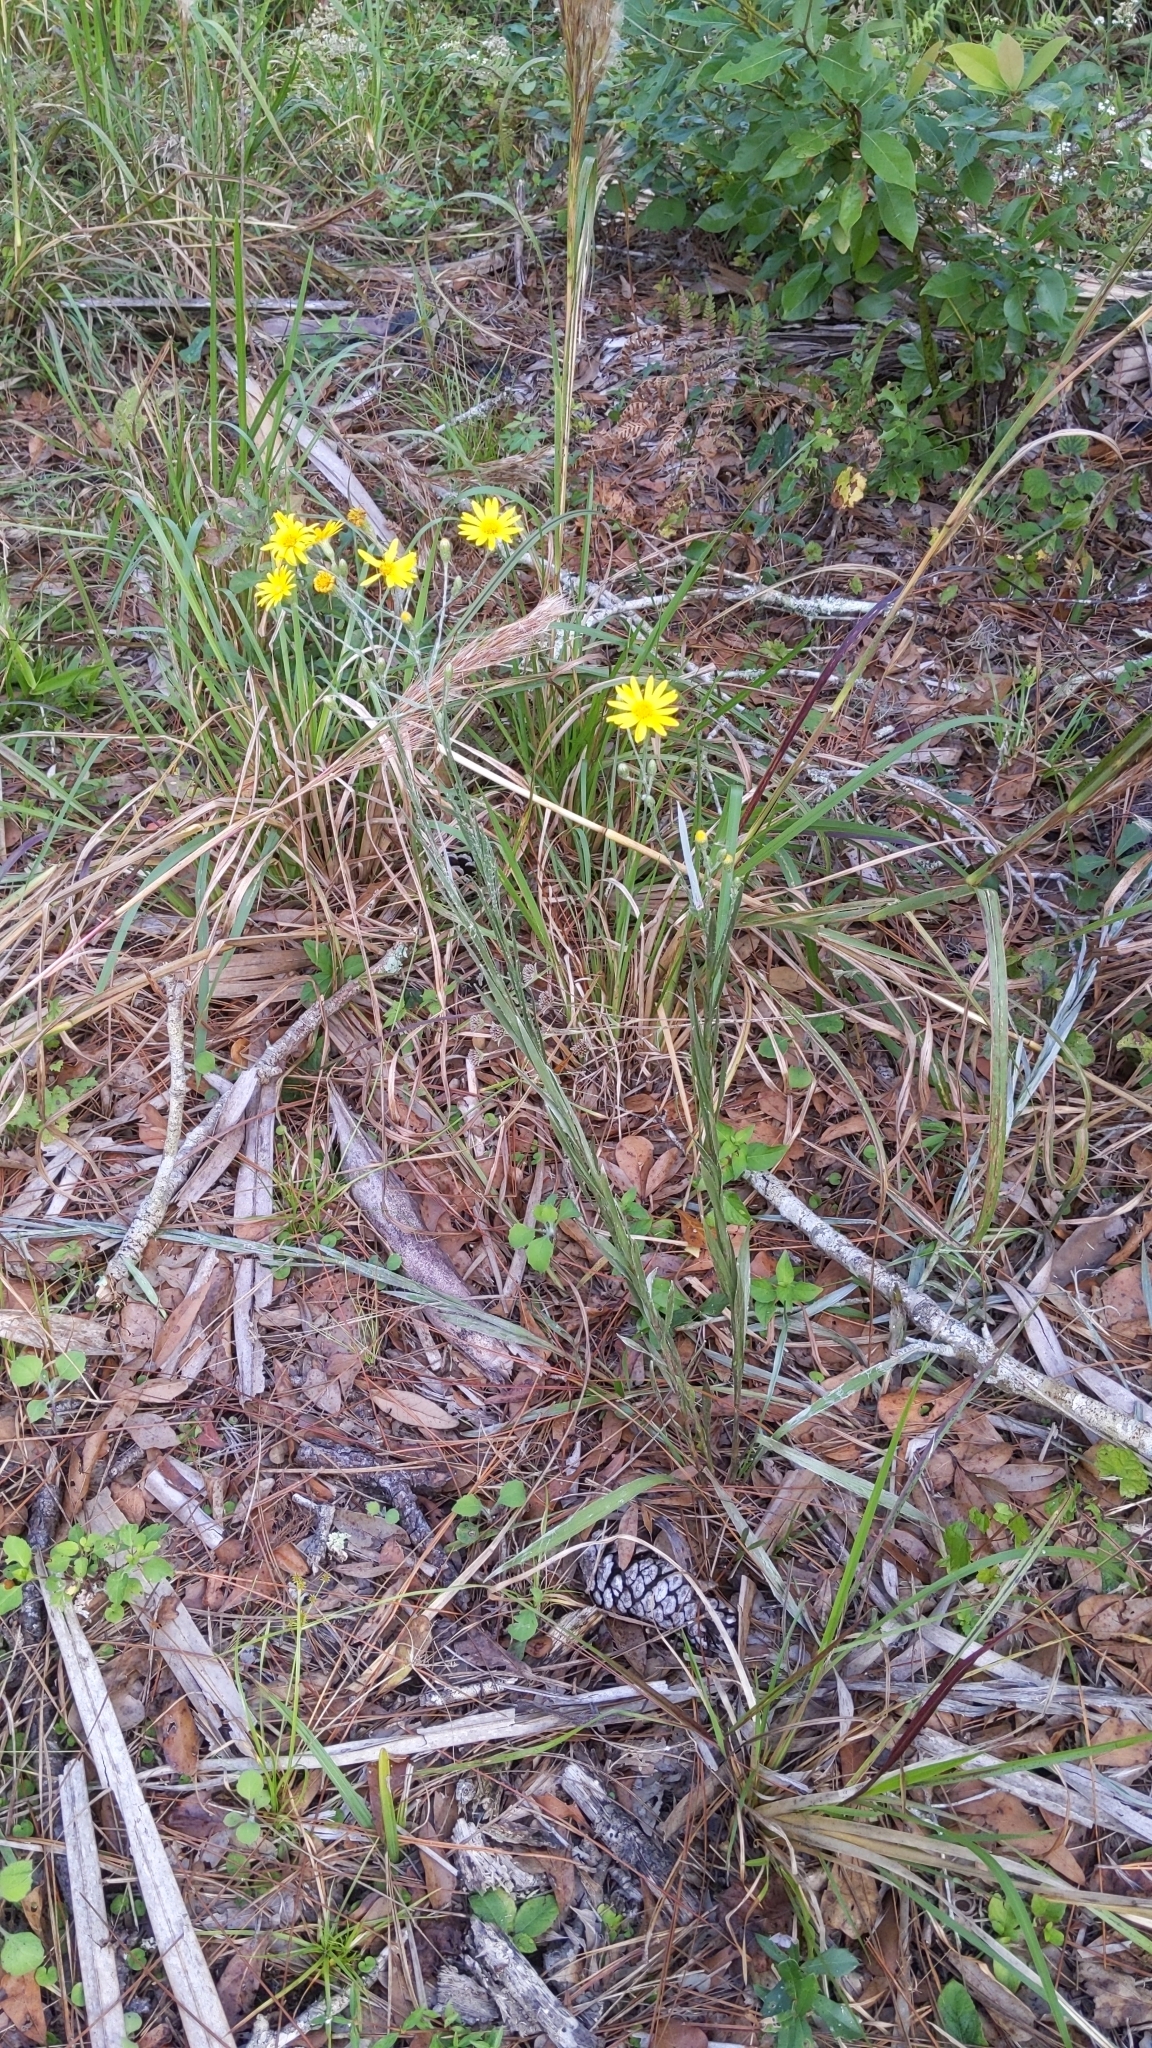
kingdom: Plantae
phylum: Tracheophyta
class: Magnoliopsida
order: Asterales
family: Asteraceae
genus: Pityopsis
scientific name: Pityopsis tracyi
